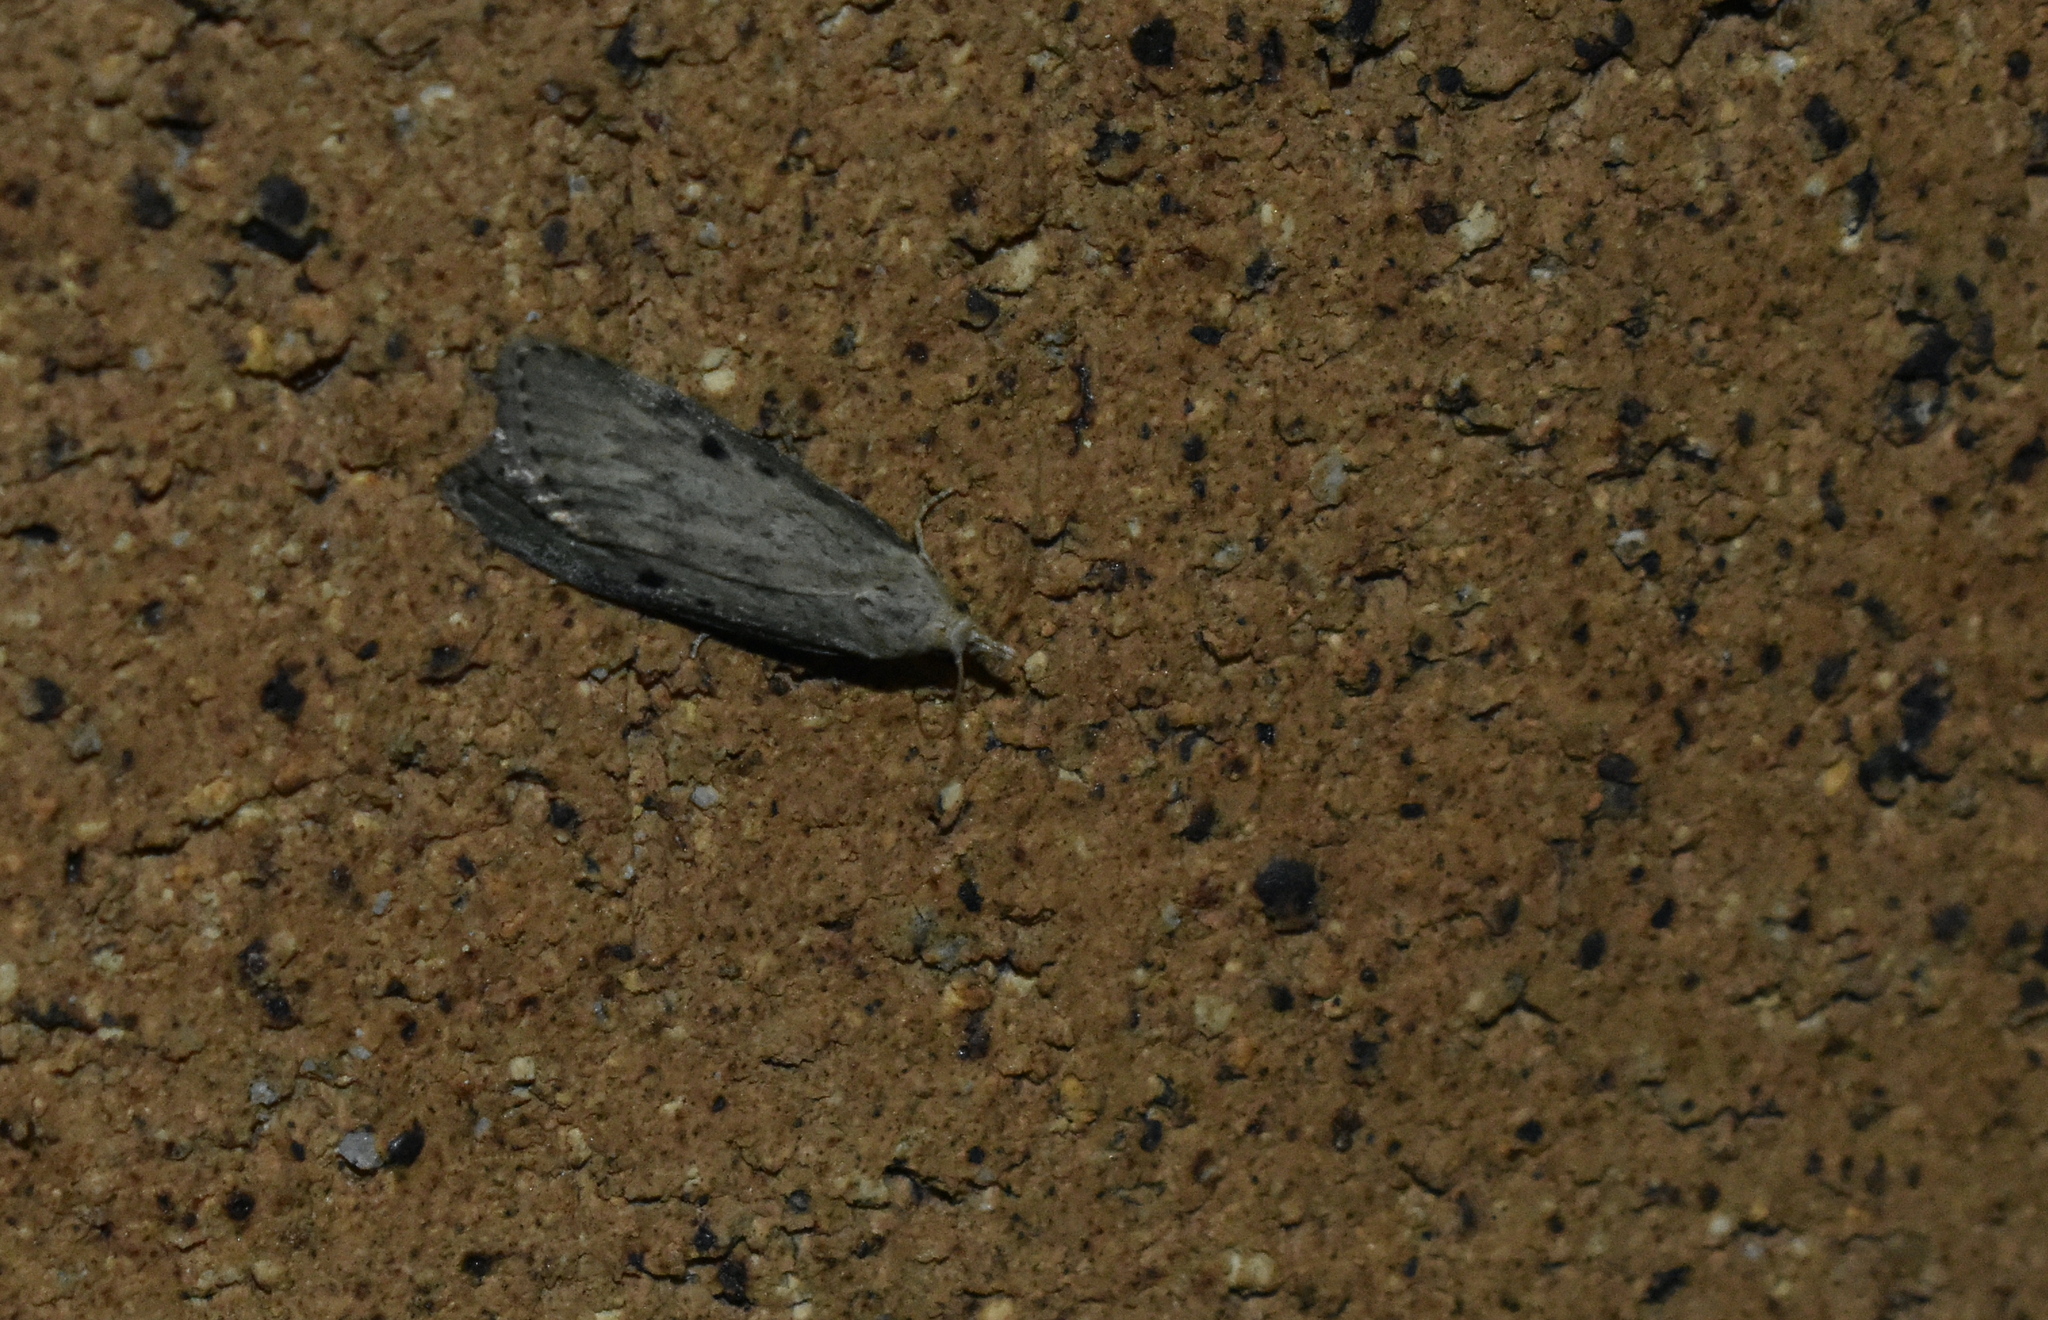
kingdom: Animalia
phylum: Arthropoda
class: Insecta
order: Lepidoptera
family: Pyralidae
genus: Aphomia
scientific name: Aphomia sociella
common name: Bee moth
